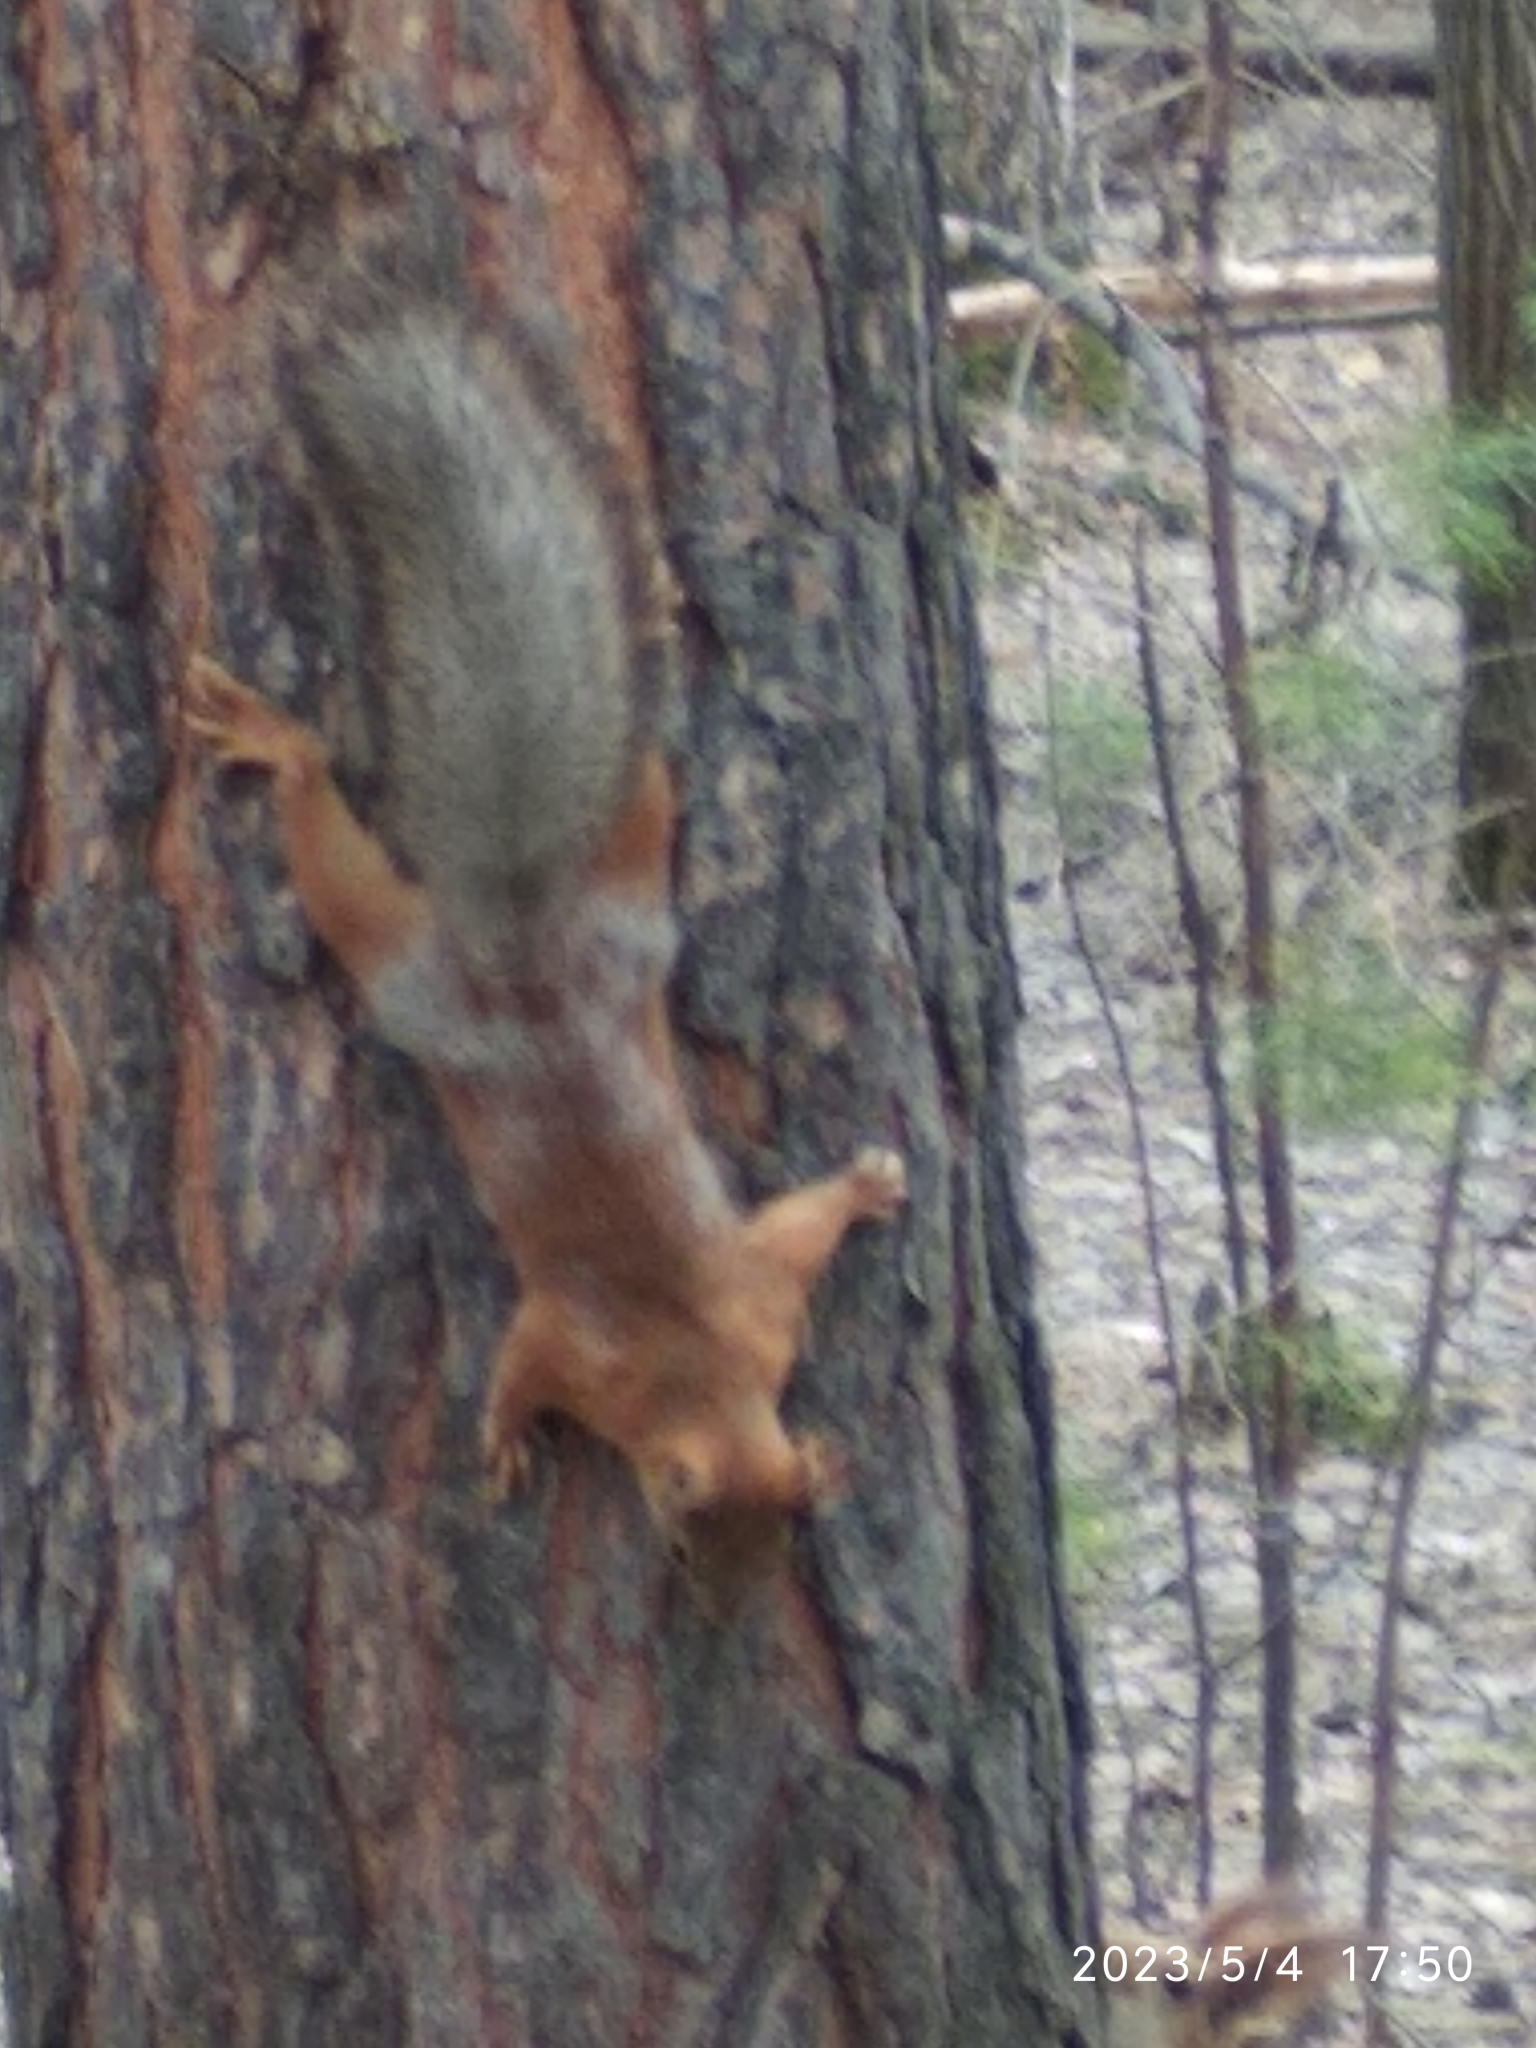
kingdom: Animalia
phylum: Chordata
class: Mammalia
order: Rodentia
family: Sciuridae
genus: Sciurus
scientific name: Sciurus vulgaris
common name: Eurasian red squirrel
